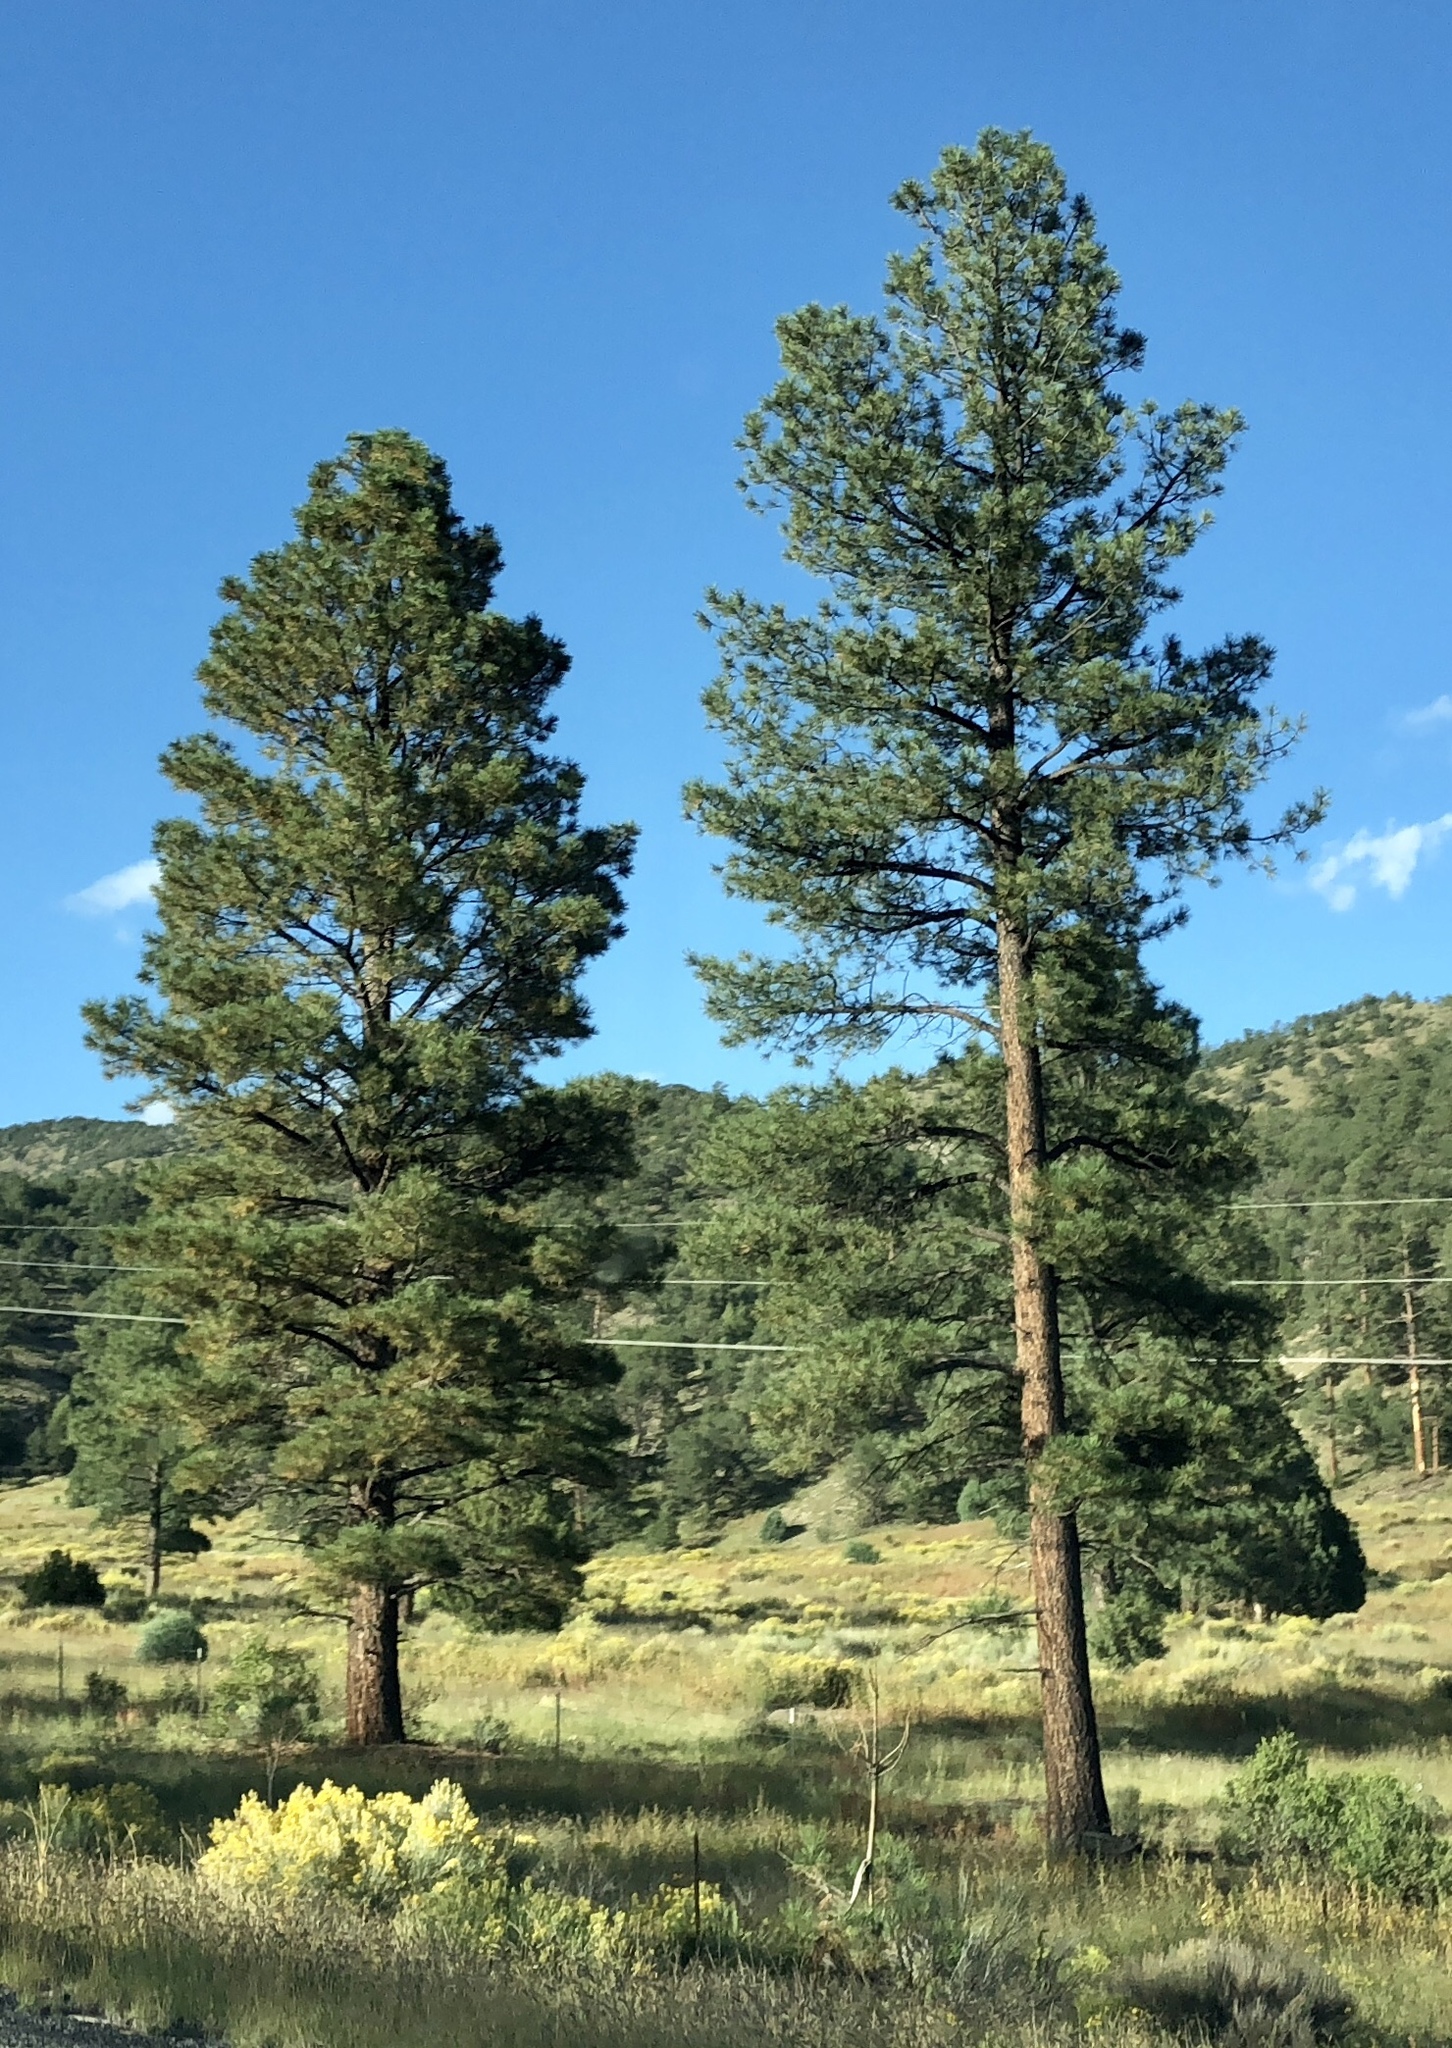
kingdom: Plantae
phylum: Tracheophyta
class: Pinopsida
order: Pinales
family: Pinaceae
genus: Pinus
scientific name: Pinus ponderosa
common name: Western yellow-pine
